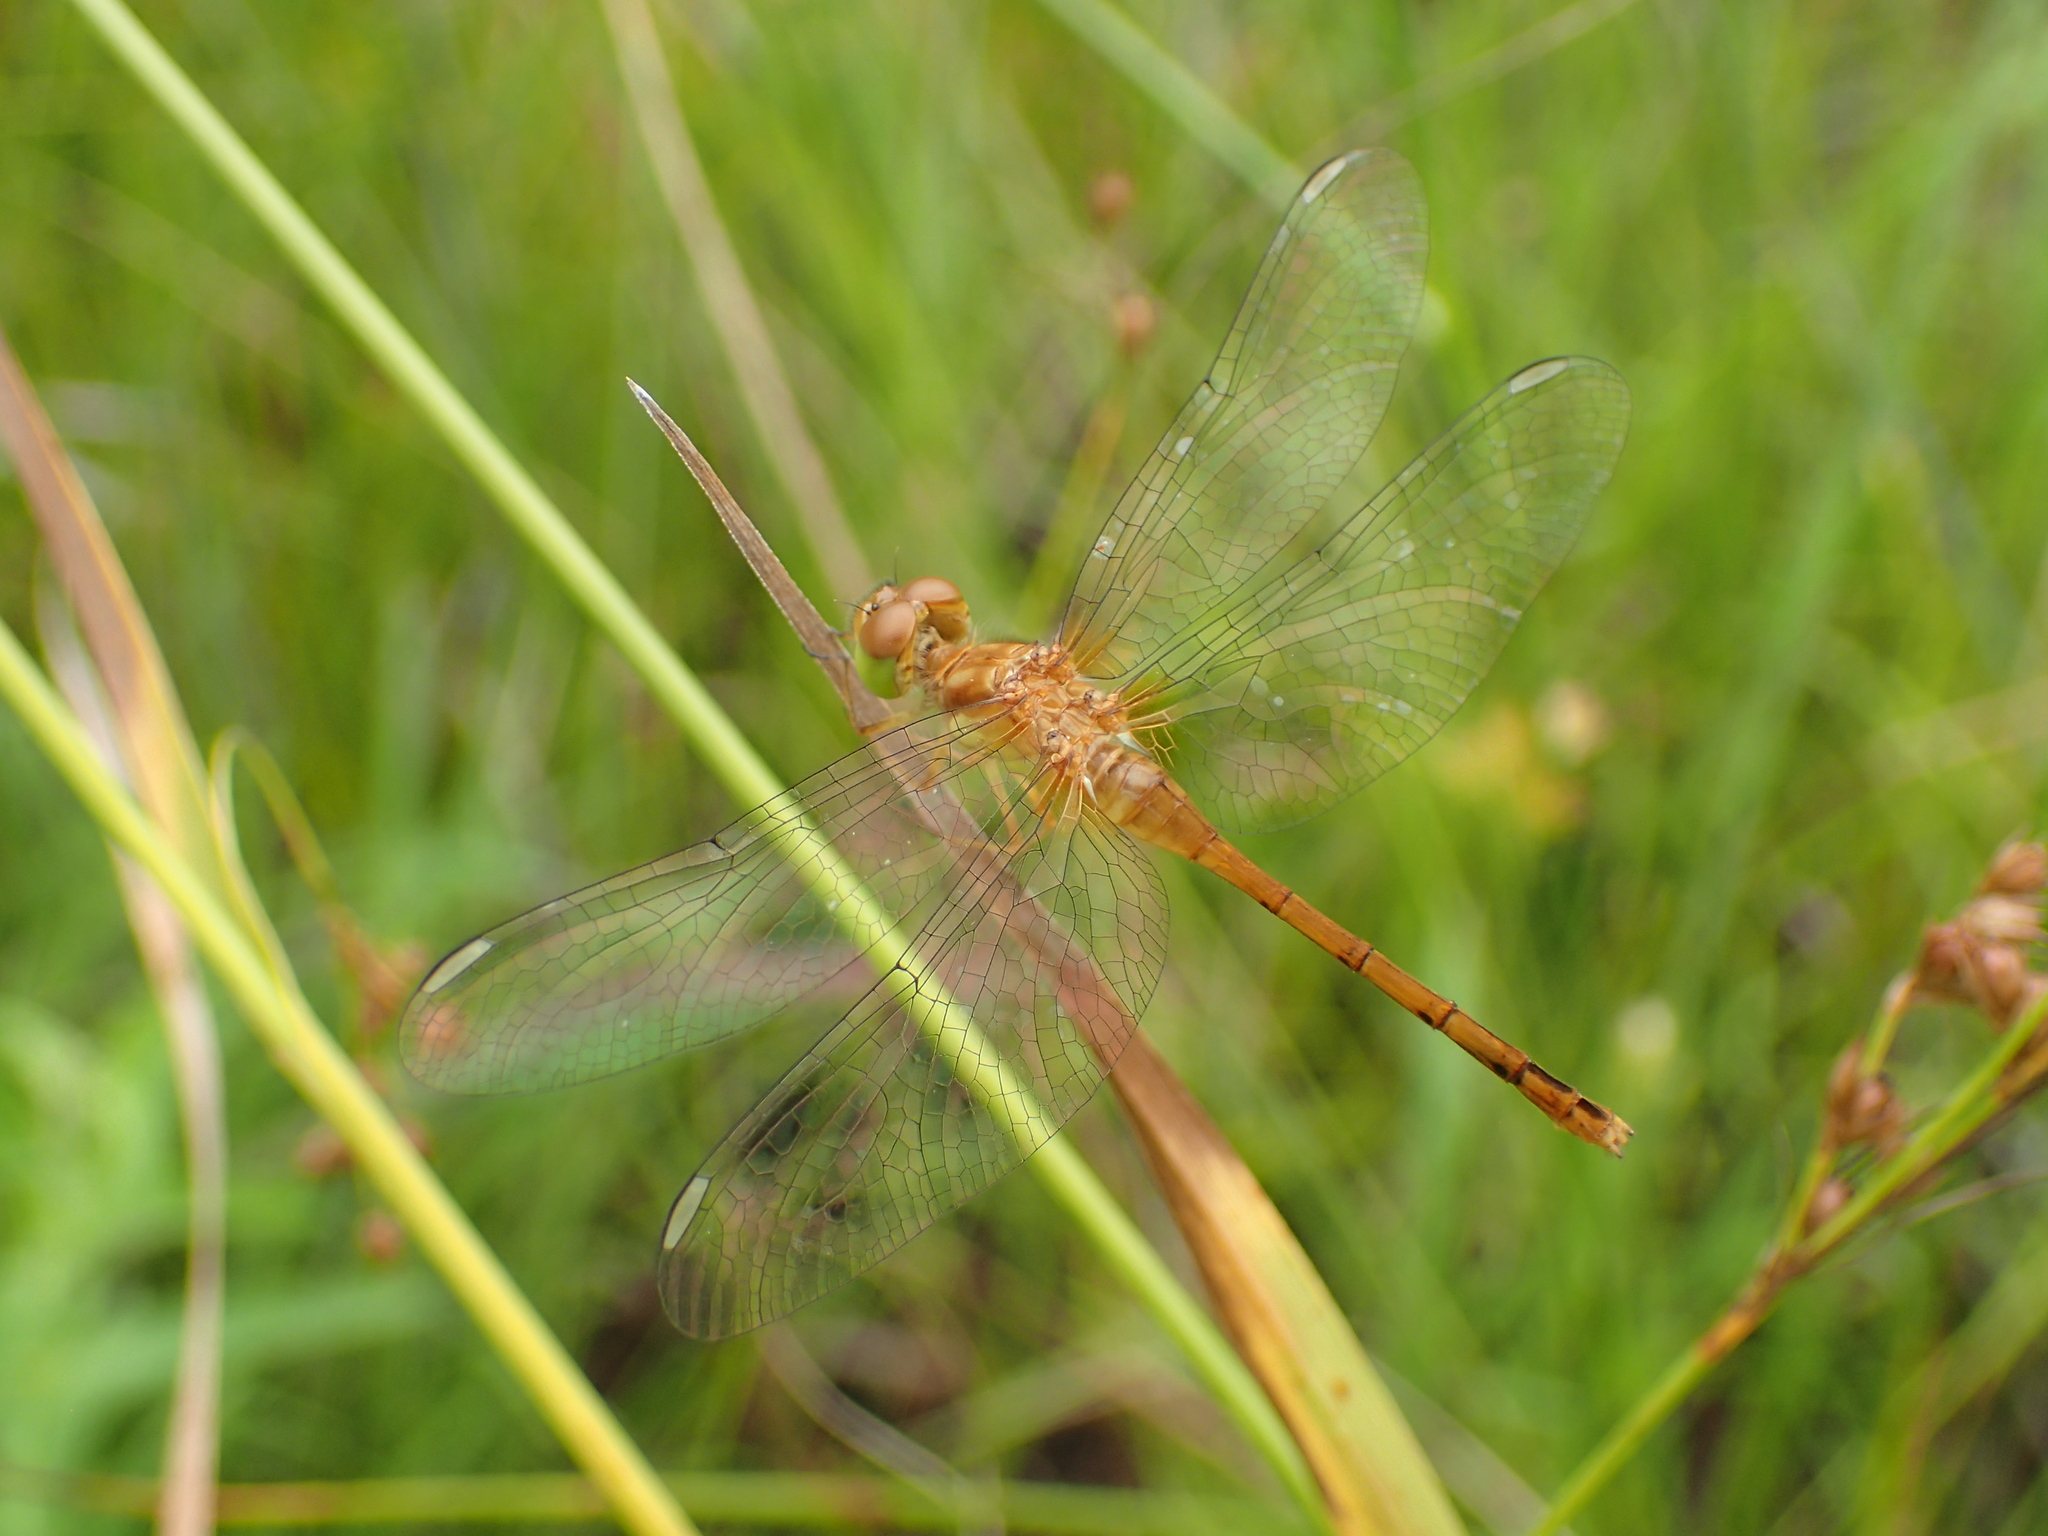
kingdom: Animalia
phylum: Arthropoda
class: Insecta
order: Odonata
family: Libellulidae
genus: Sympetrum
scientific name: Sympetrum vicinum
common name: Autumn meadowhawk
